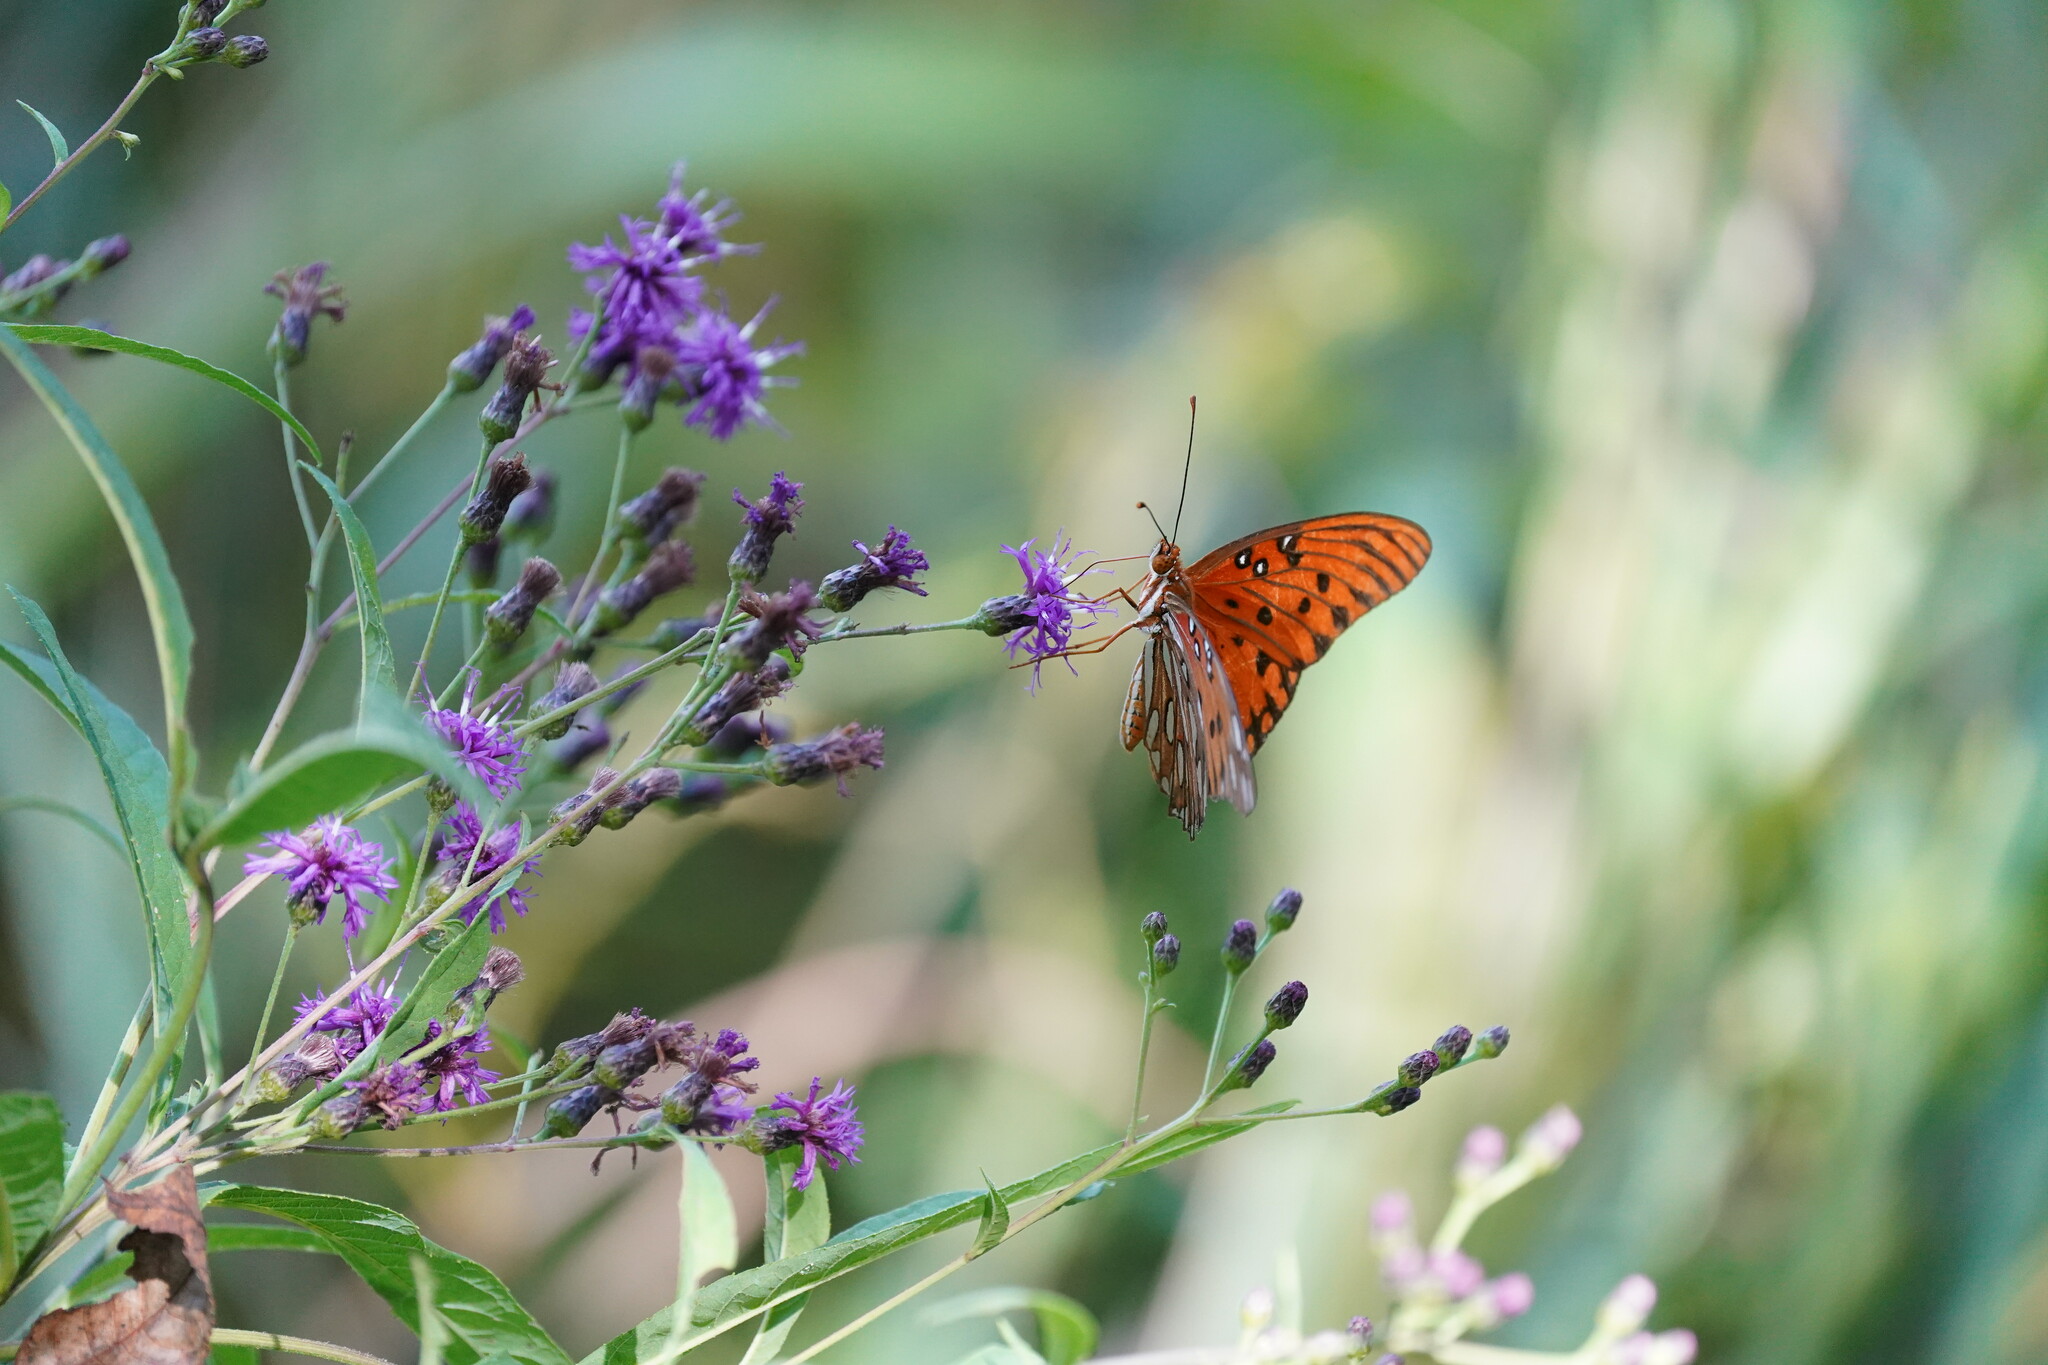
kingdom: Animalia
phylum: Arthropoda
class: Insecta
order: Lepidoptera
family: Nymphalidae
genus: Dione
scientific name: Dione vanillae
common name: Gulf fritillary
